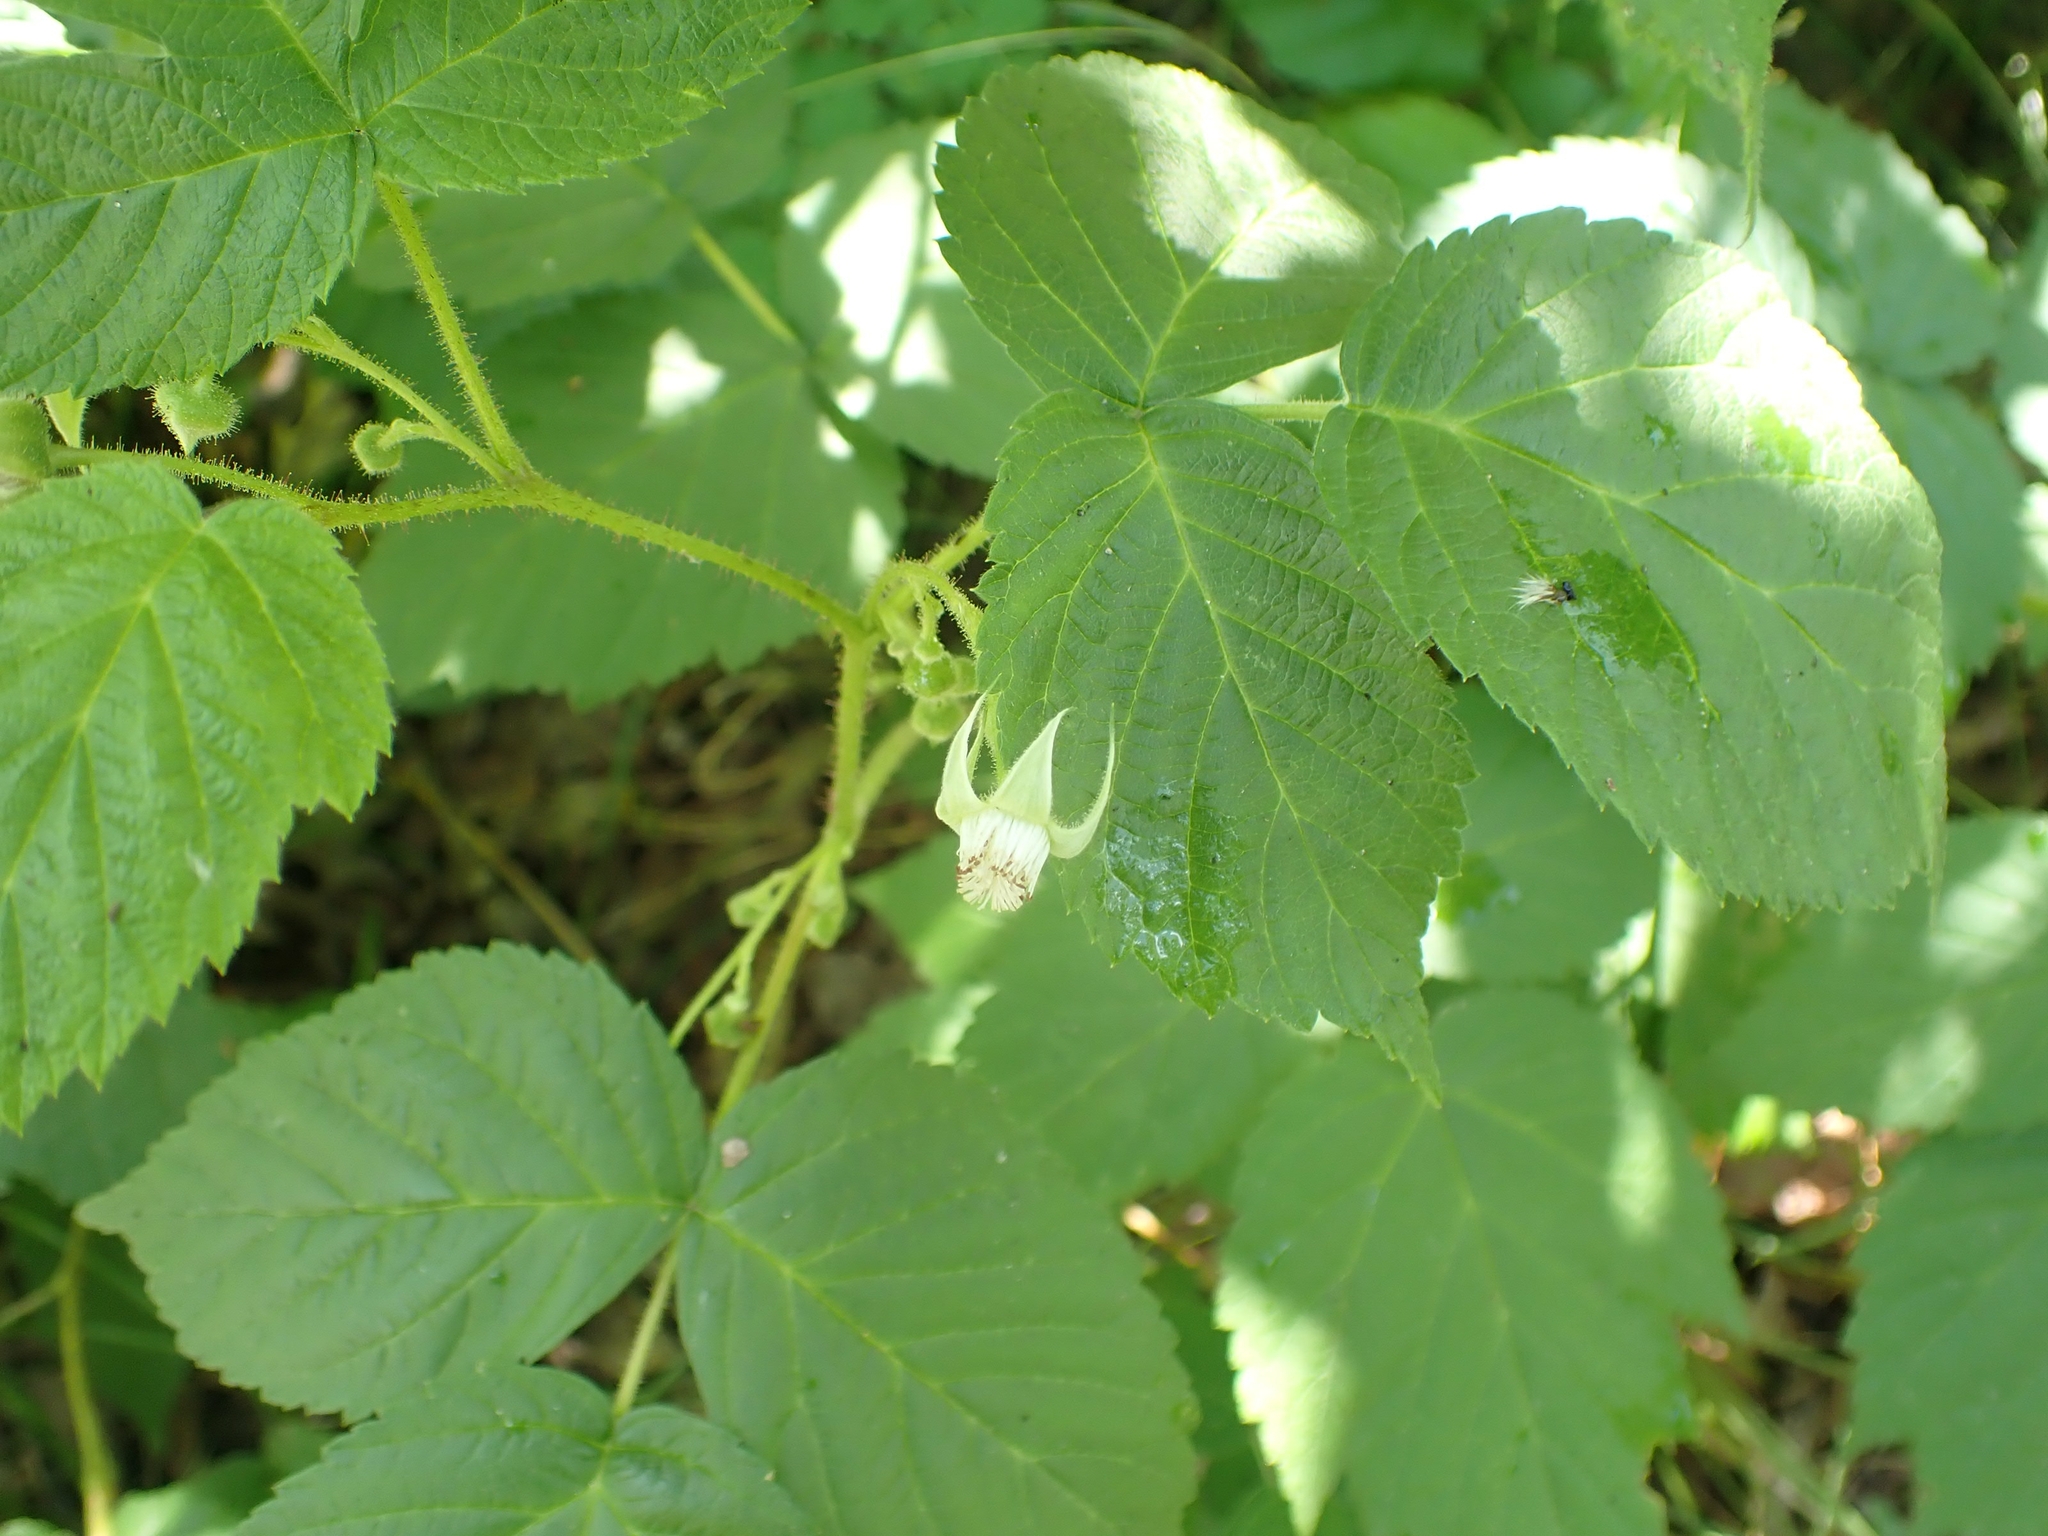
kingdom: Plantae
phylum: Tracheophyta
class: Magnoliopsida
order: Rosales
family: Rosaceae
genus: Rubus
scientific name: Rubus idaeus
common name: Raspberry
